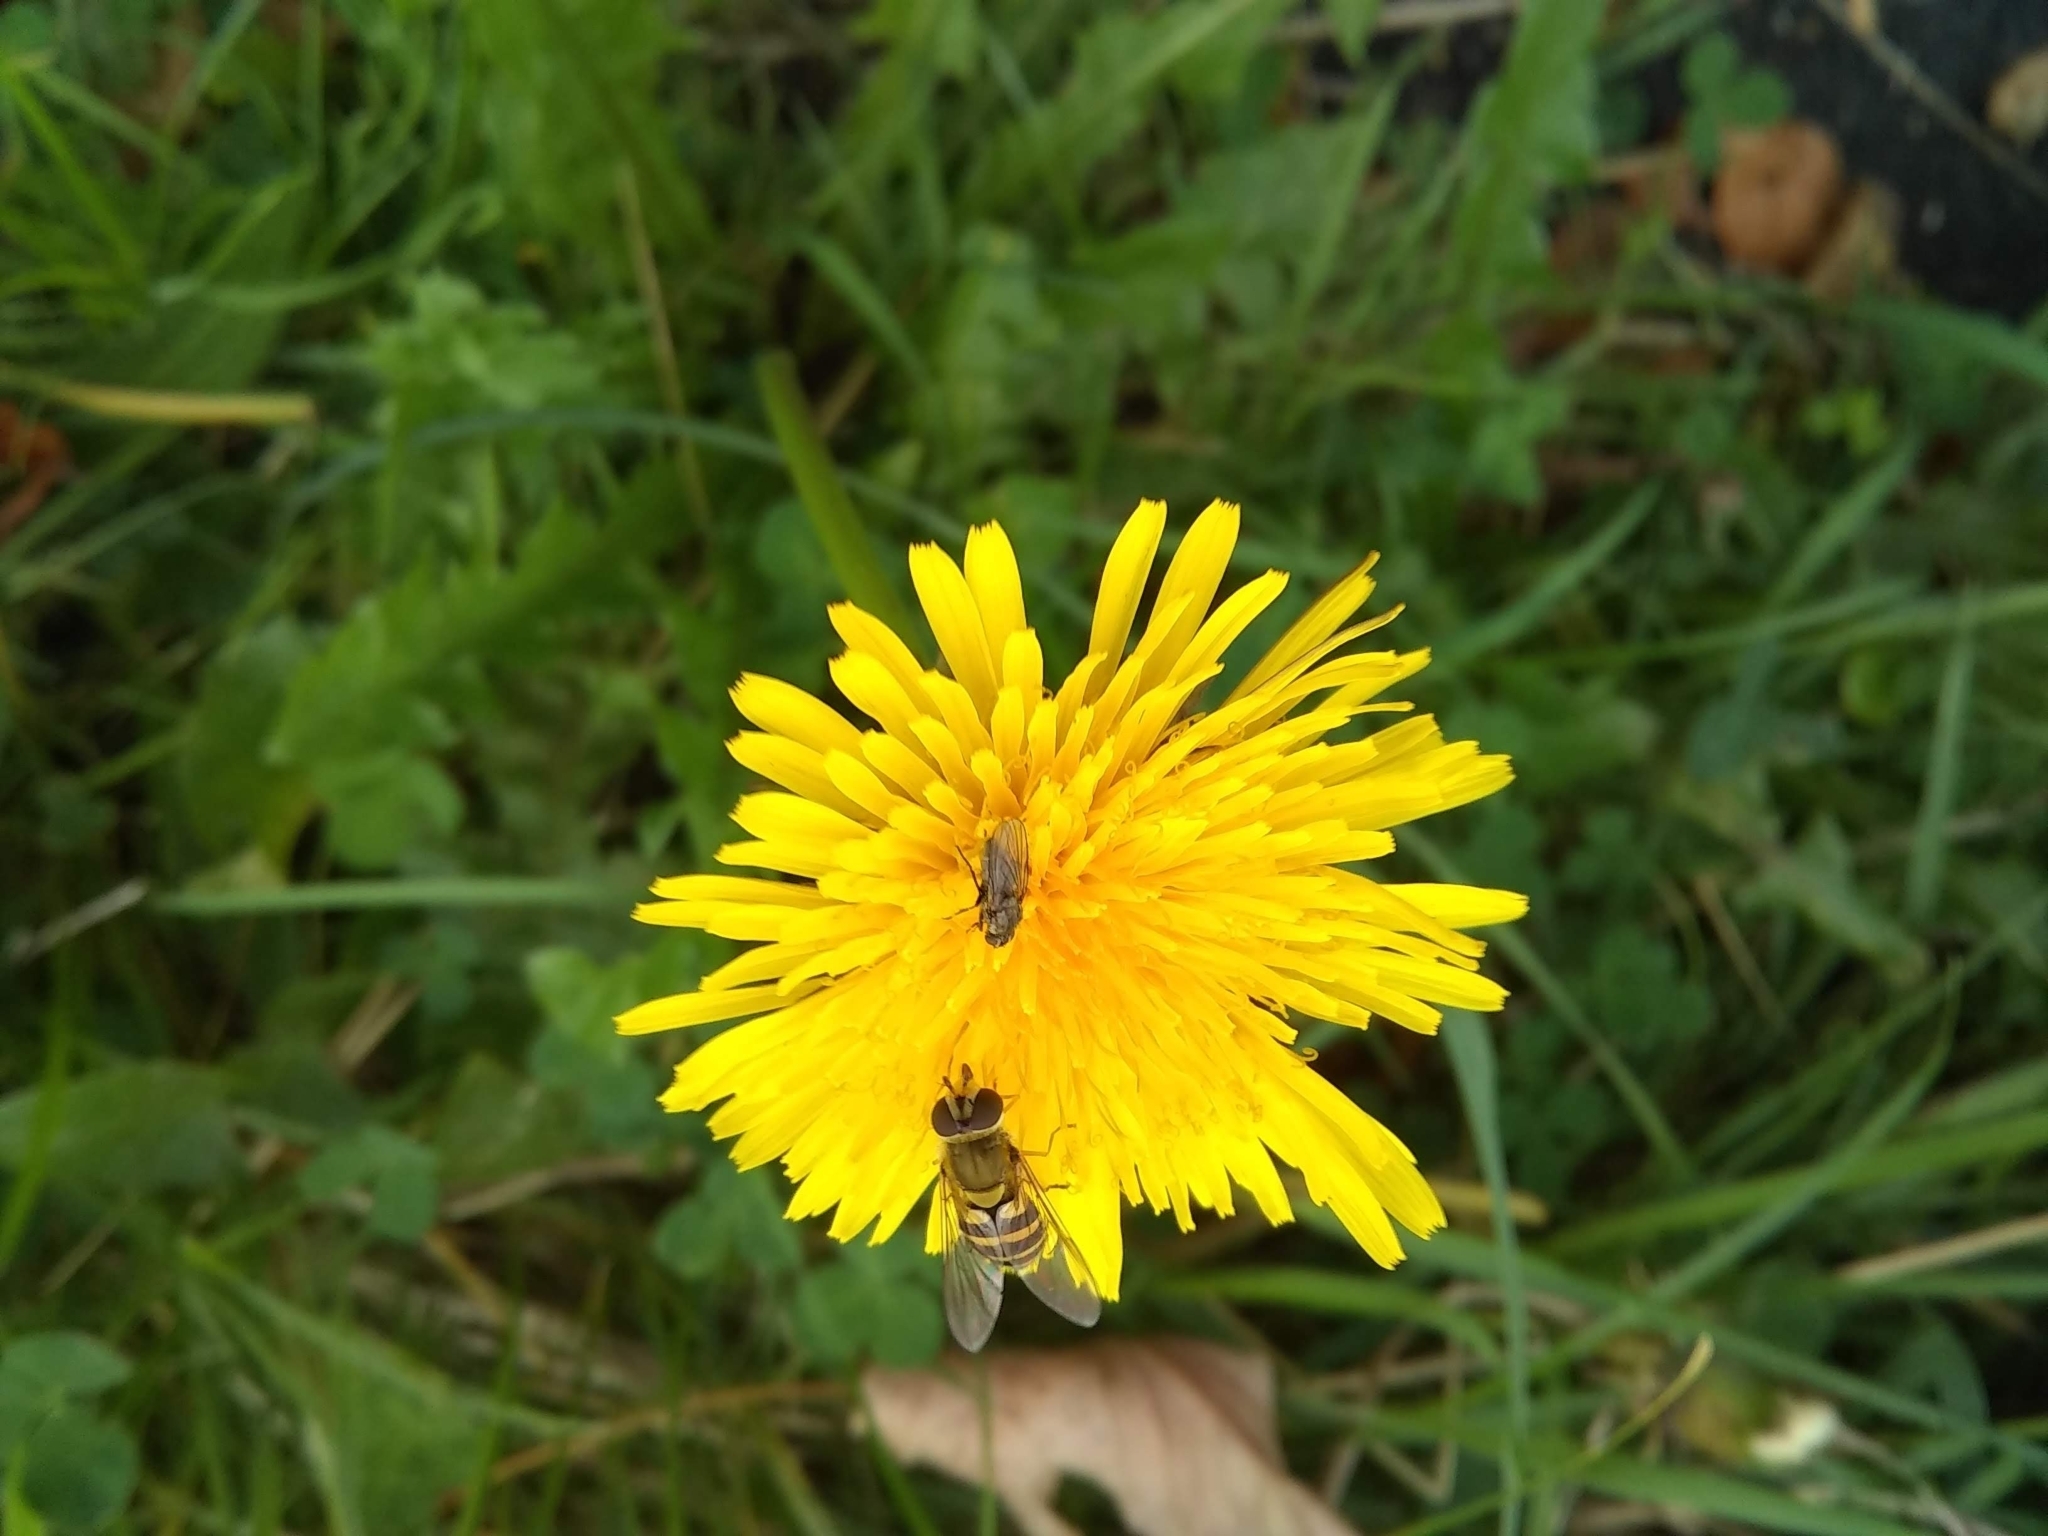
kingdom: Animalia
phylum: Arthropoda
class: Insecta
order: Diptera
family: Syrphidae
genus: Syrphus
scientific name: Syrphus
